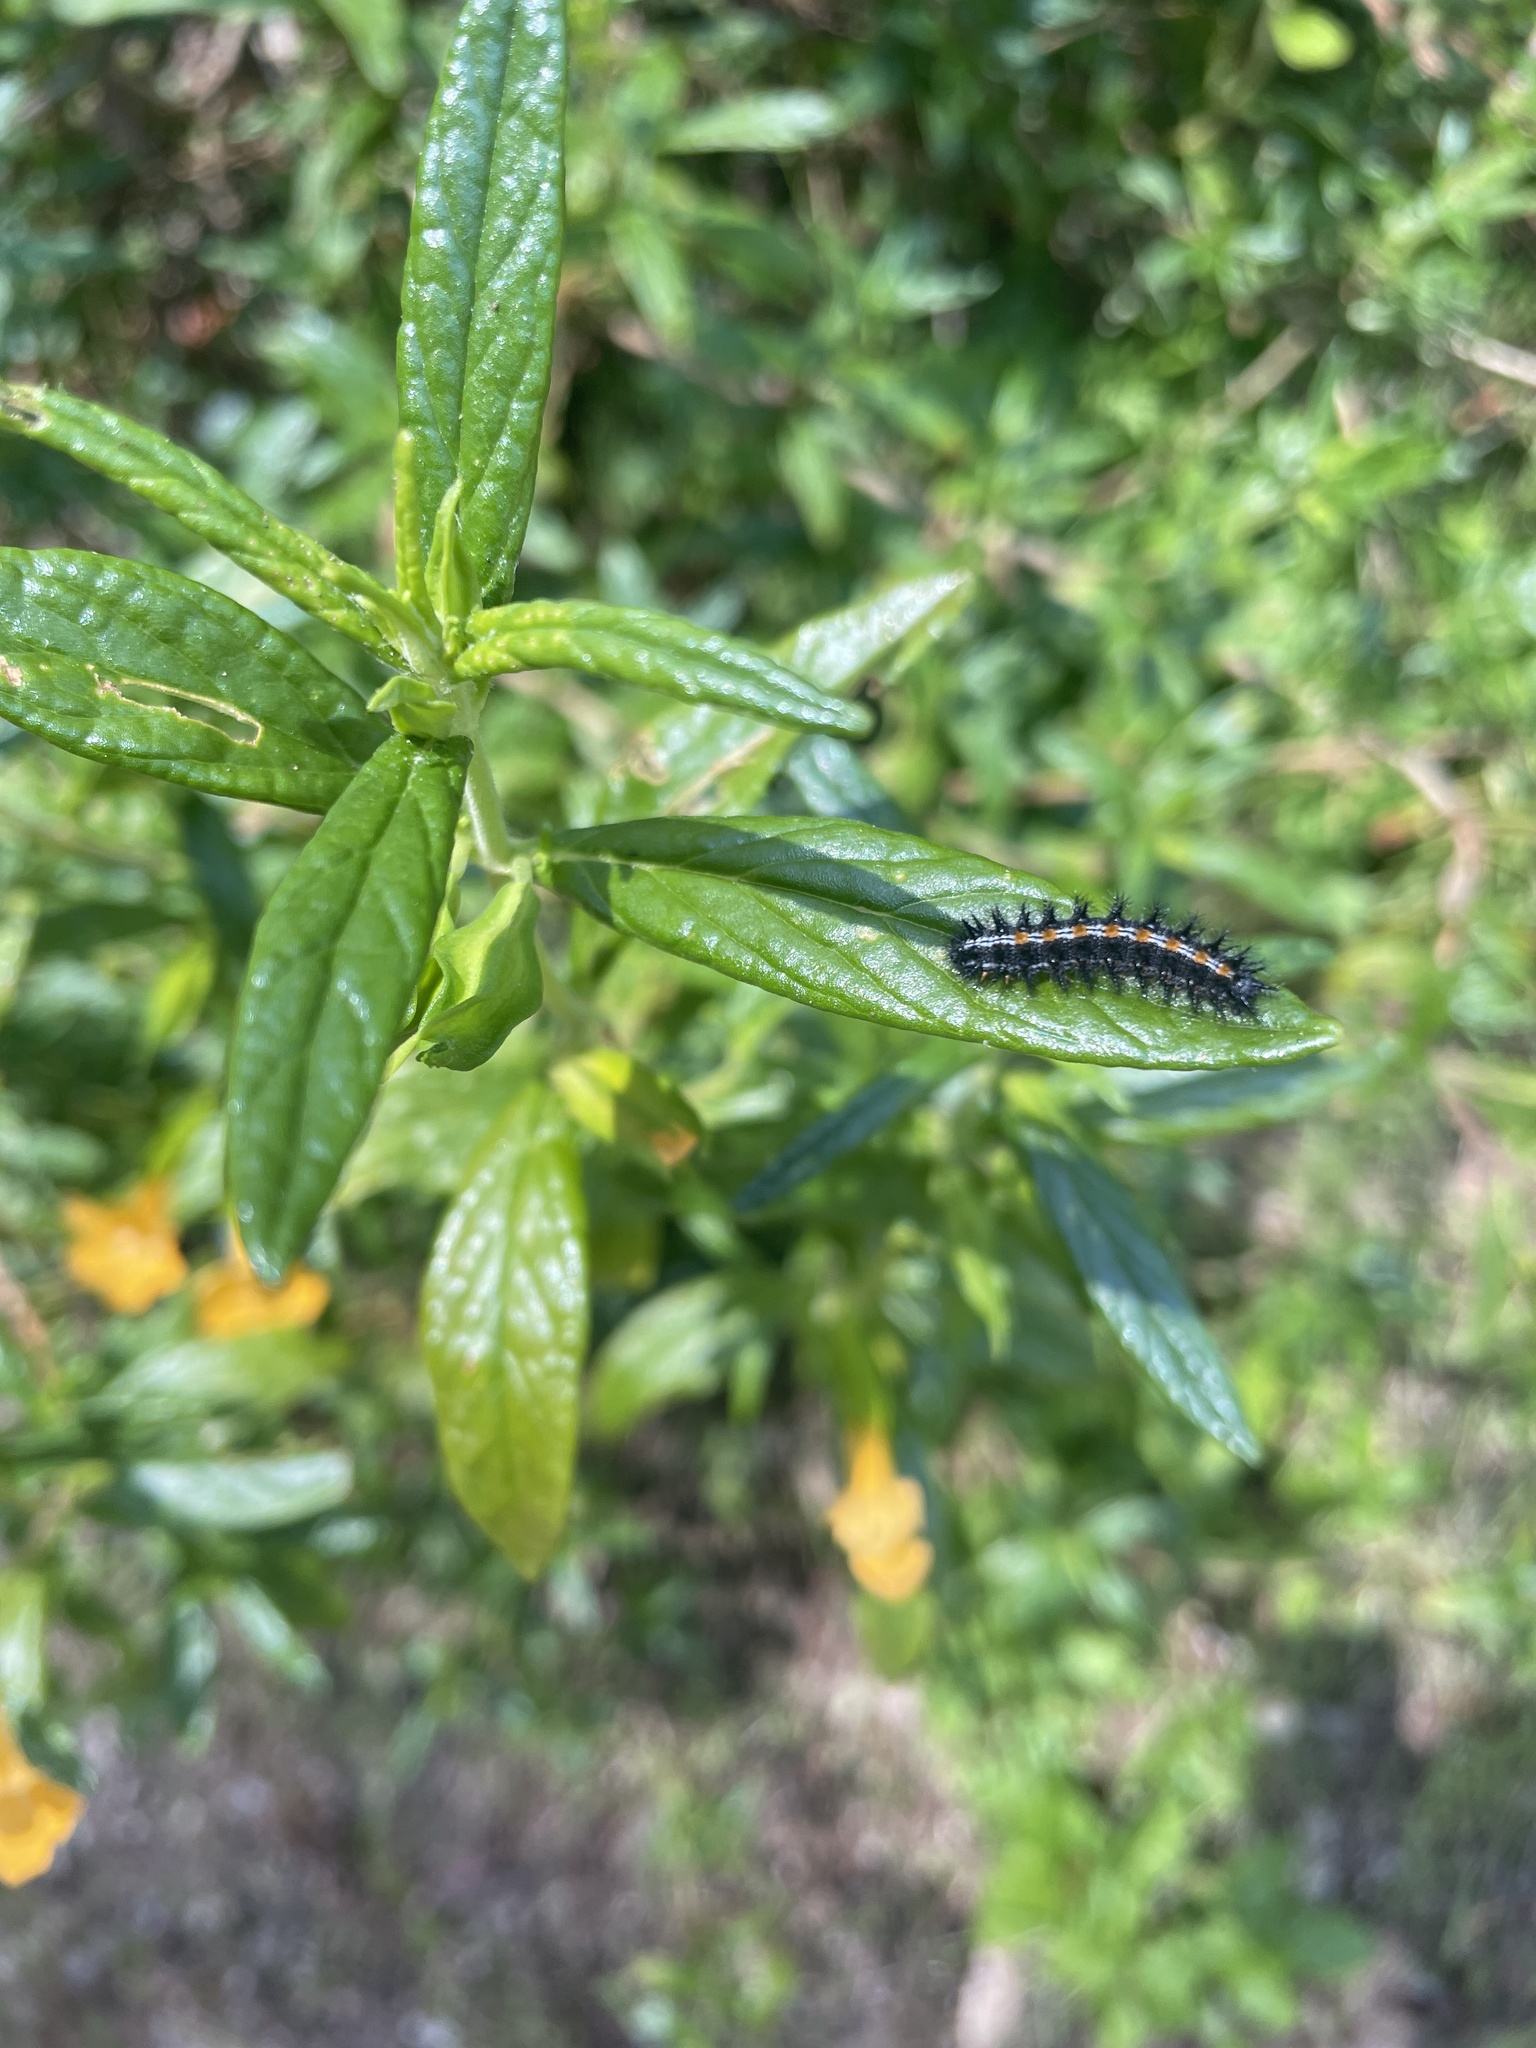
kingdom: Animalia
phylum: Arthropoda
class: Insecta
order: Lepidoptera
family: Nymphalidae
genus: Occidryas
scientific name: Occidryas chalcedona
